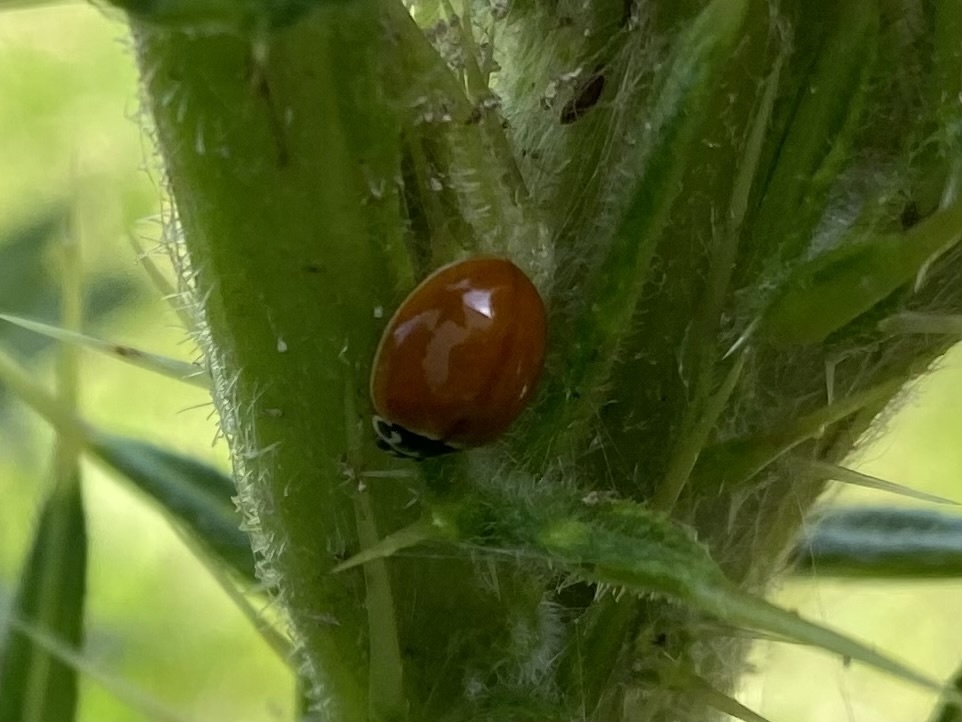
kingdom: Animalia
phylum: Arthropoda
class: Insecta
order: Coleoptera
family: Coccinellidae
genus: Cycloneda
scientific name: Cycloneda munda
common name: Polished lady beetle
